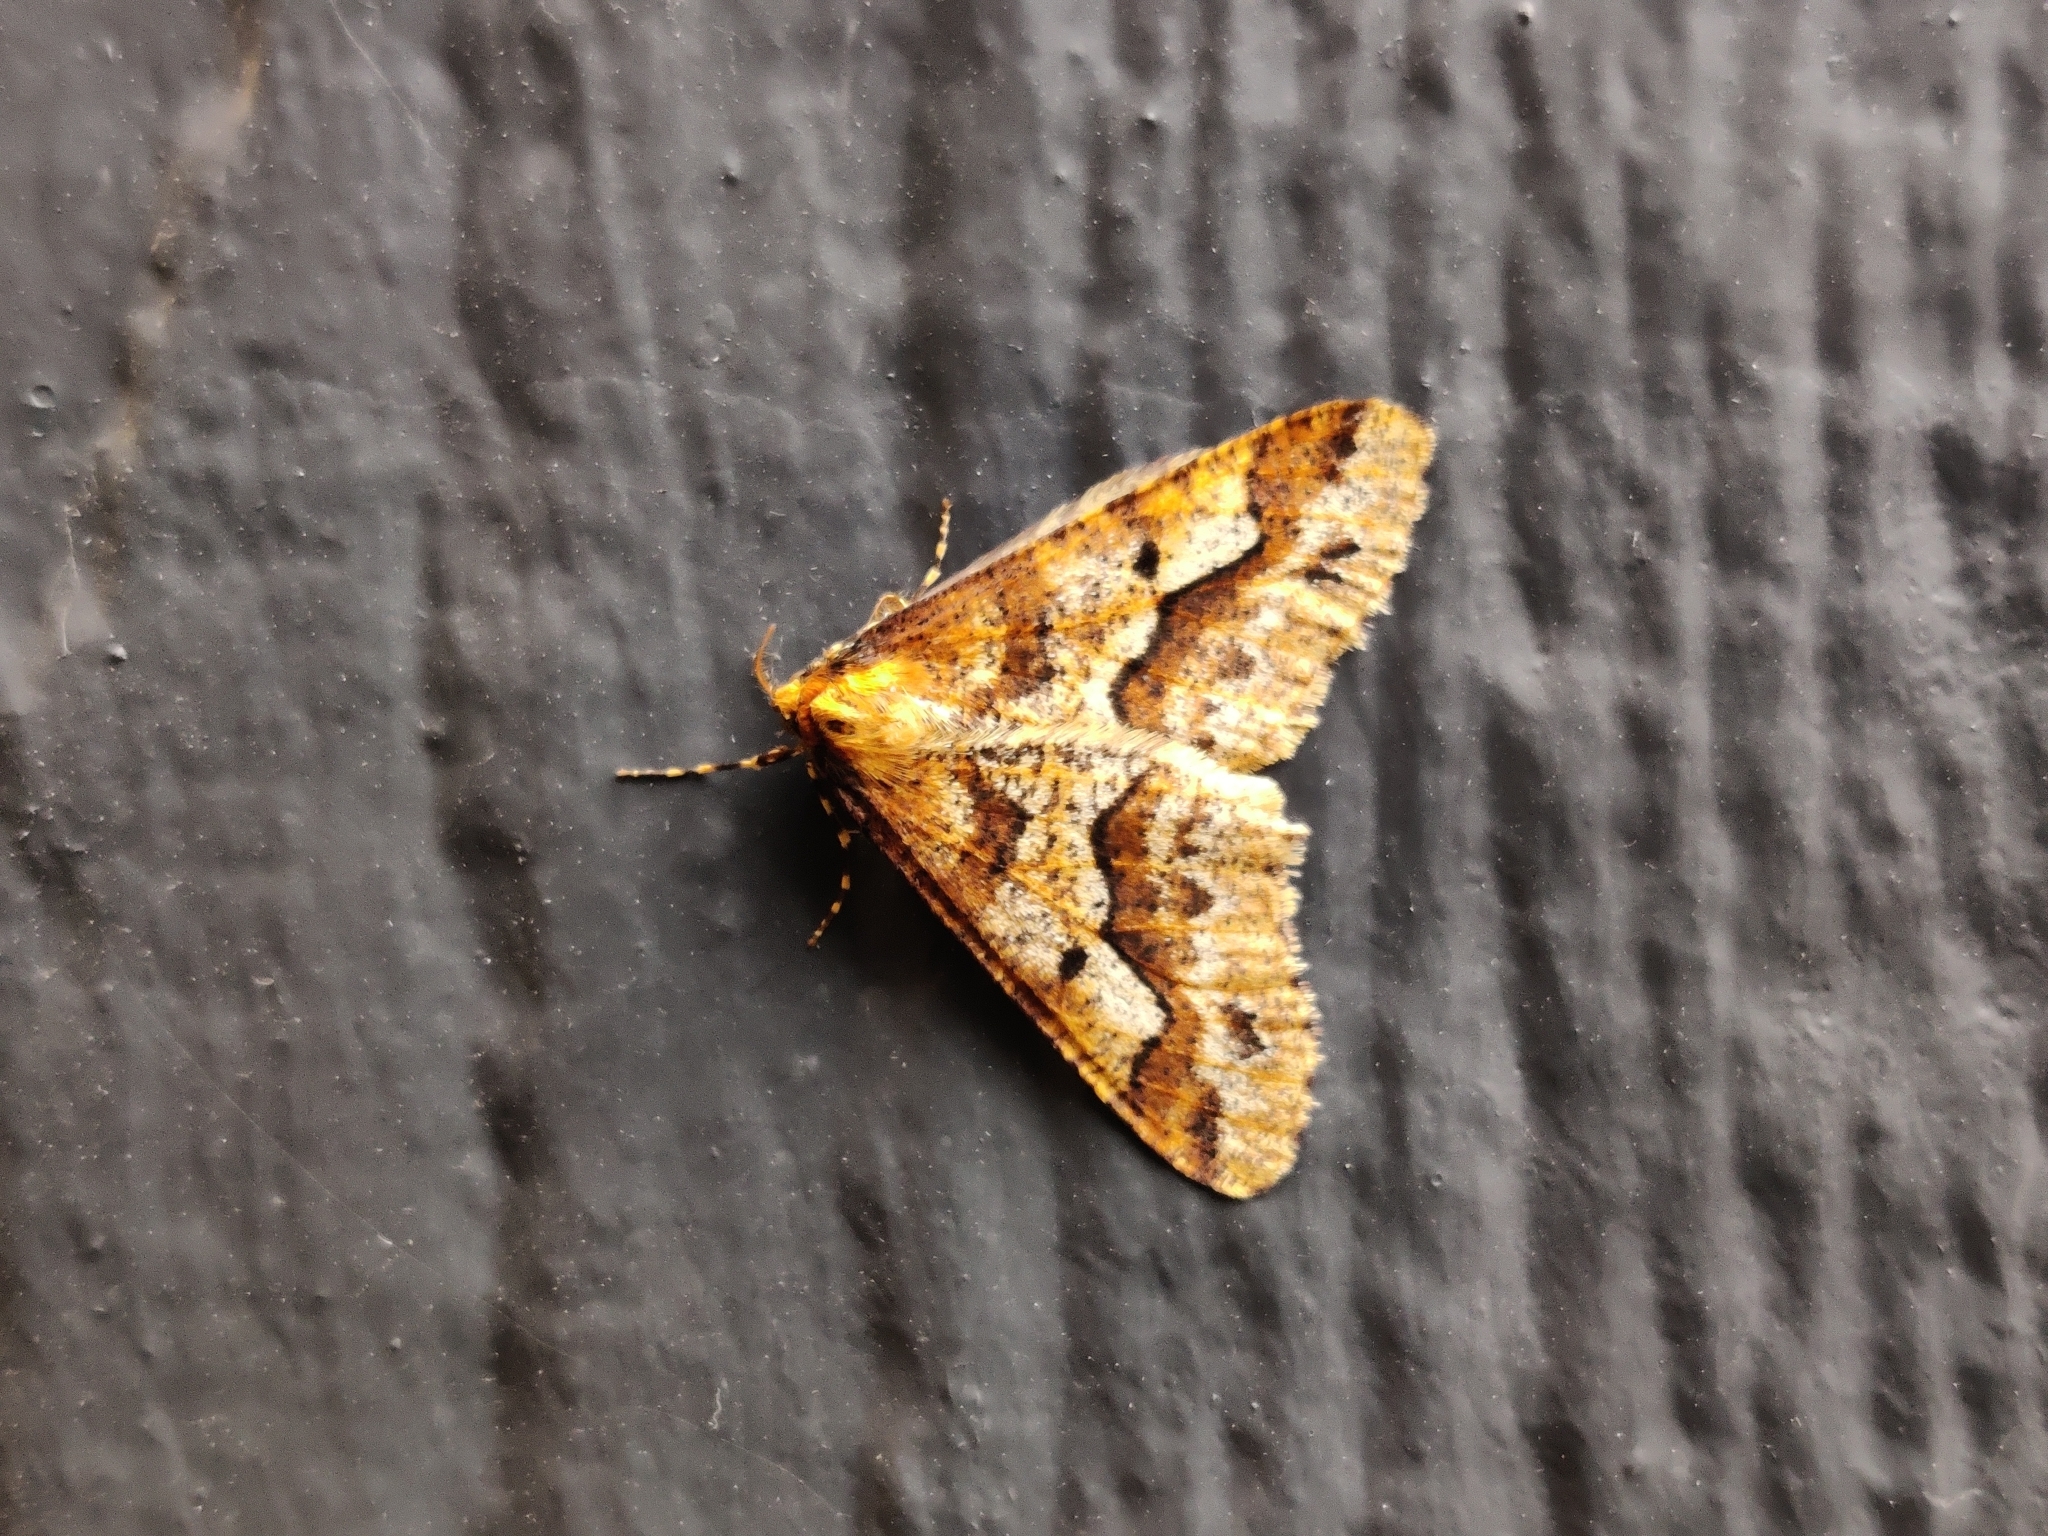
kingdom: Animalia
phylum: Arthropoda
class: Insecta
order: Lepidoptera
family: Geometridae
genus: Erannis
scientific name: Erannis defoliaria
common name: Mottled umber
